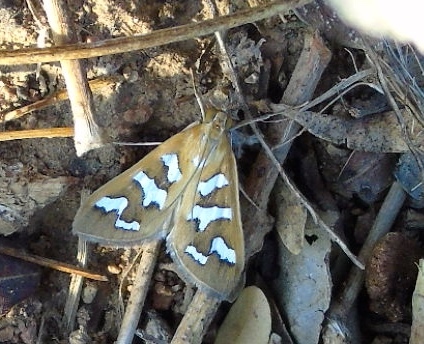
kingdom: Animalia
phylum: Arthropoda
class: Insecta
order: Lepidoptera
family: Crambidae
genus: Diastictis
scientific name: Diastictis fracturalis
